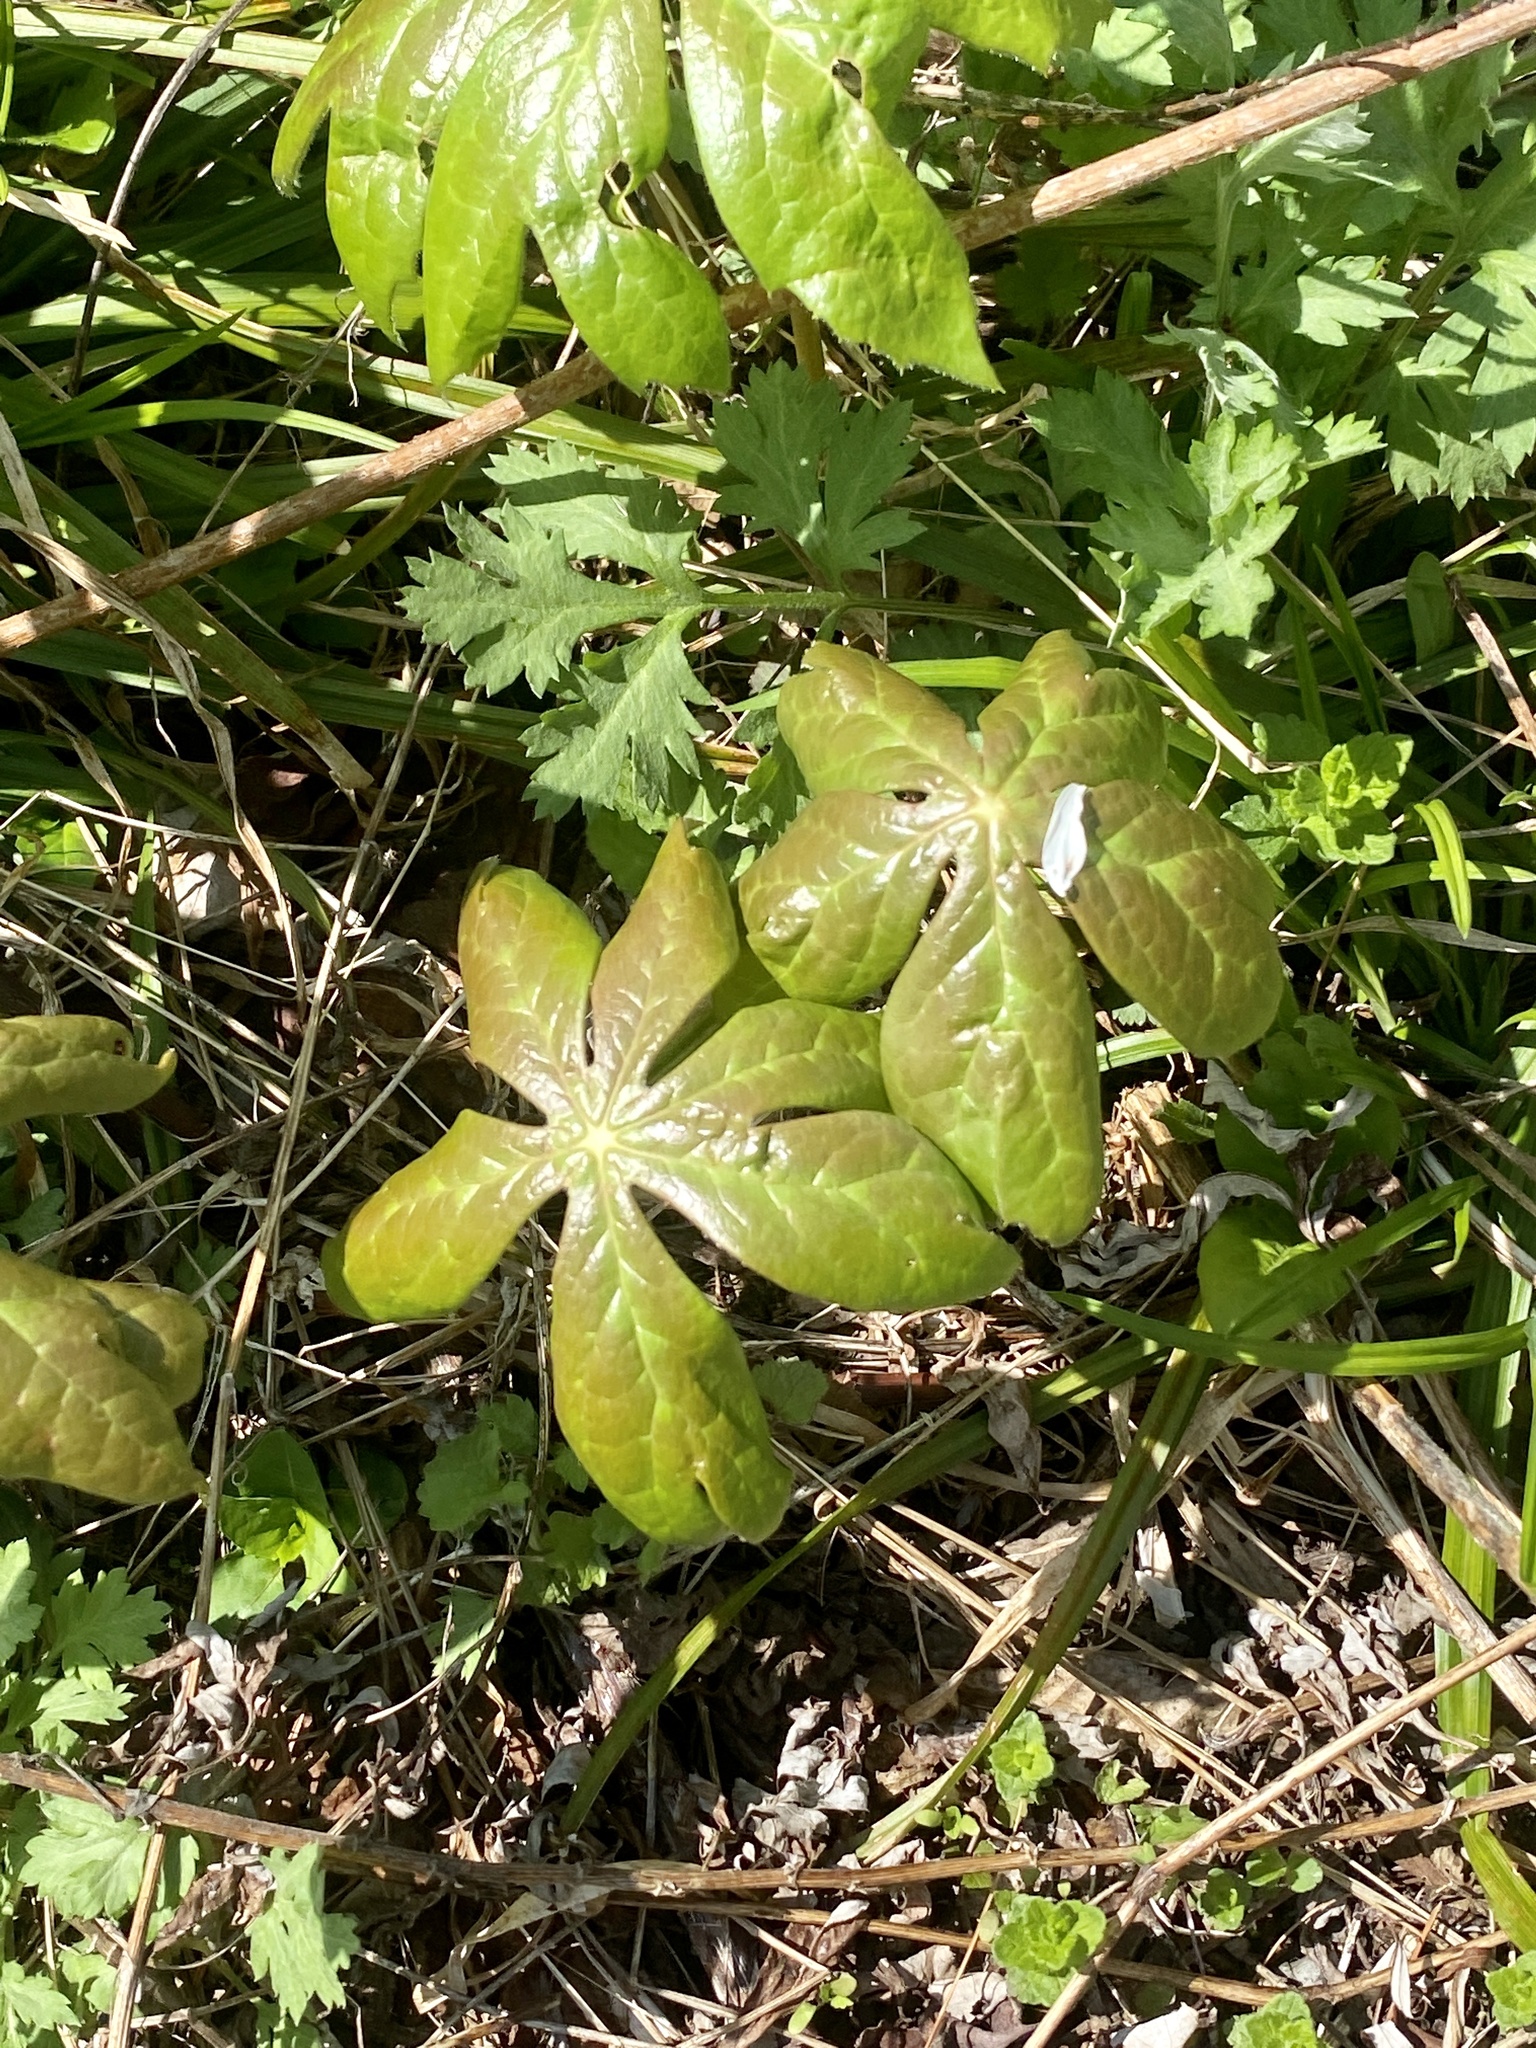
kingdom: Plantae
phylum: Tracheophyta
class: Magnoliopsida
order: Ranunculales
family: Berberidaceae
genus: Podophyllum
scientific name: Podophyllum peltatum
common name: Wild mandrake
